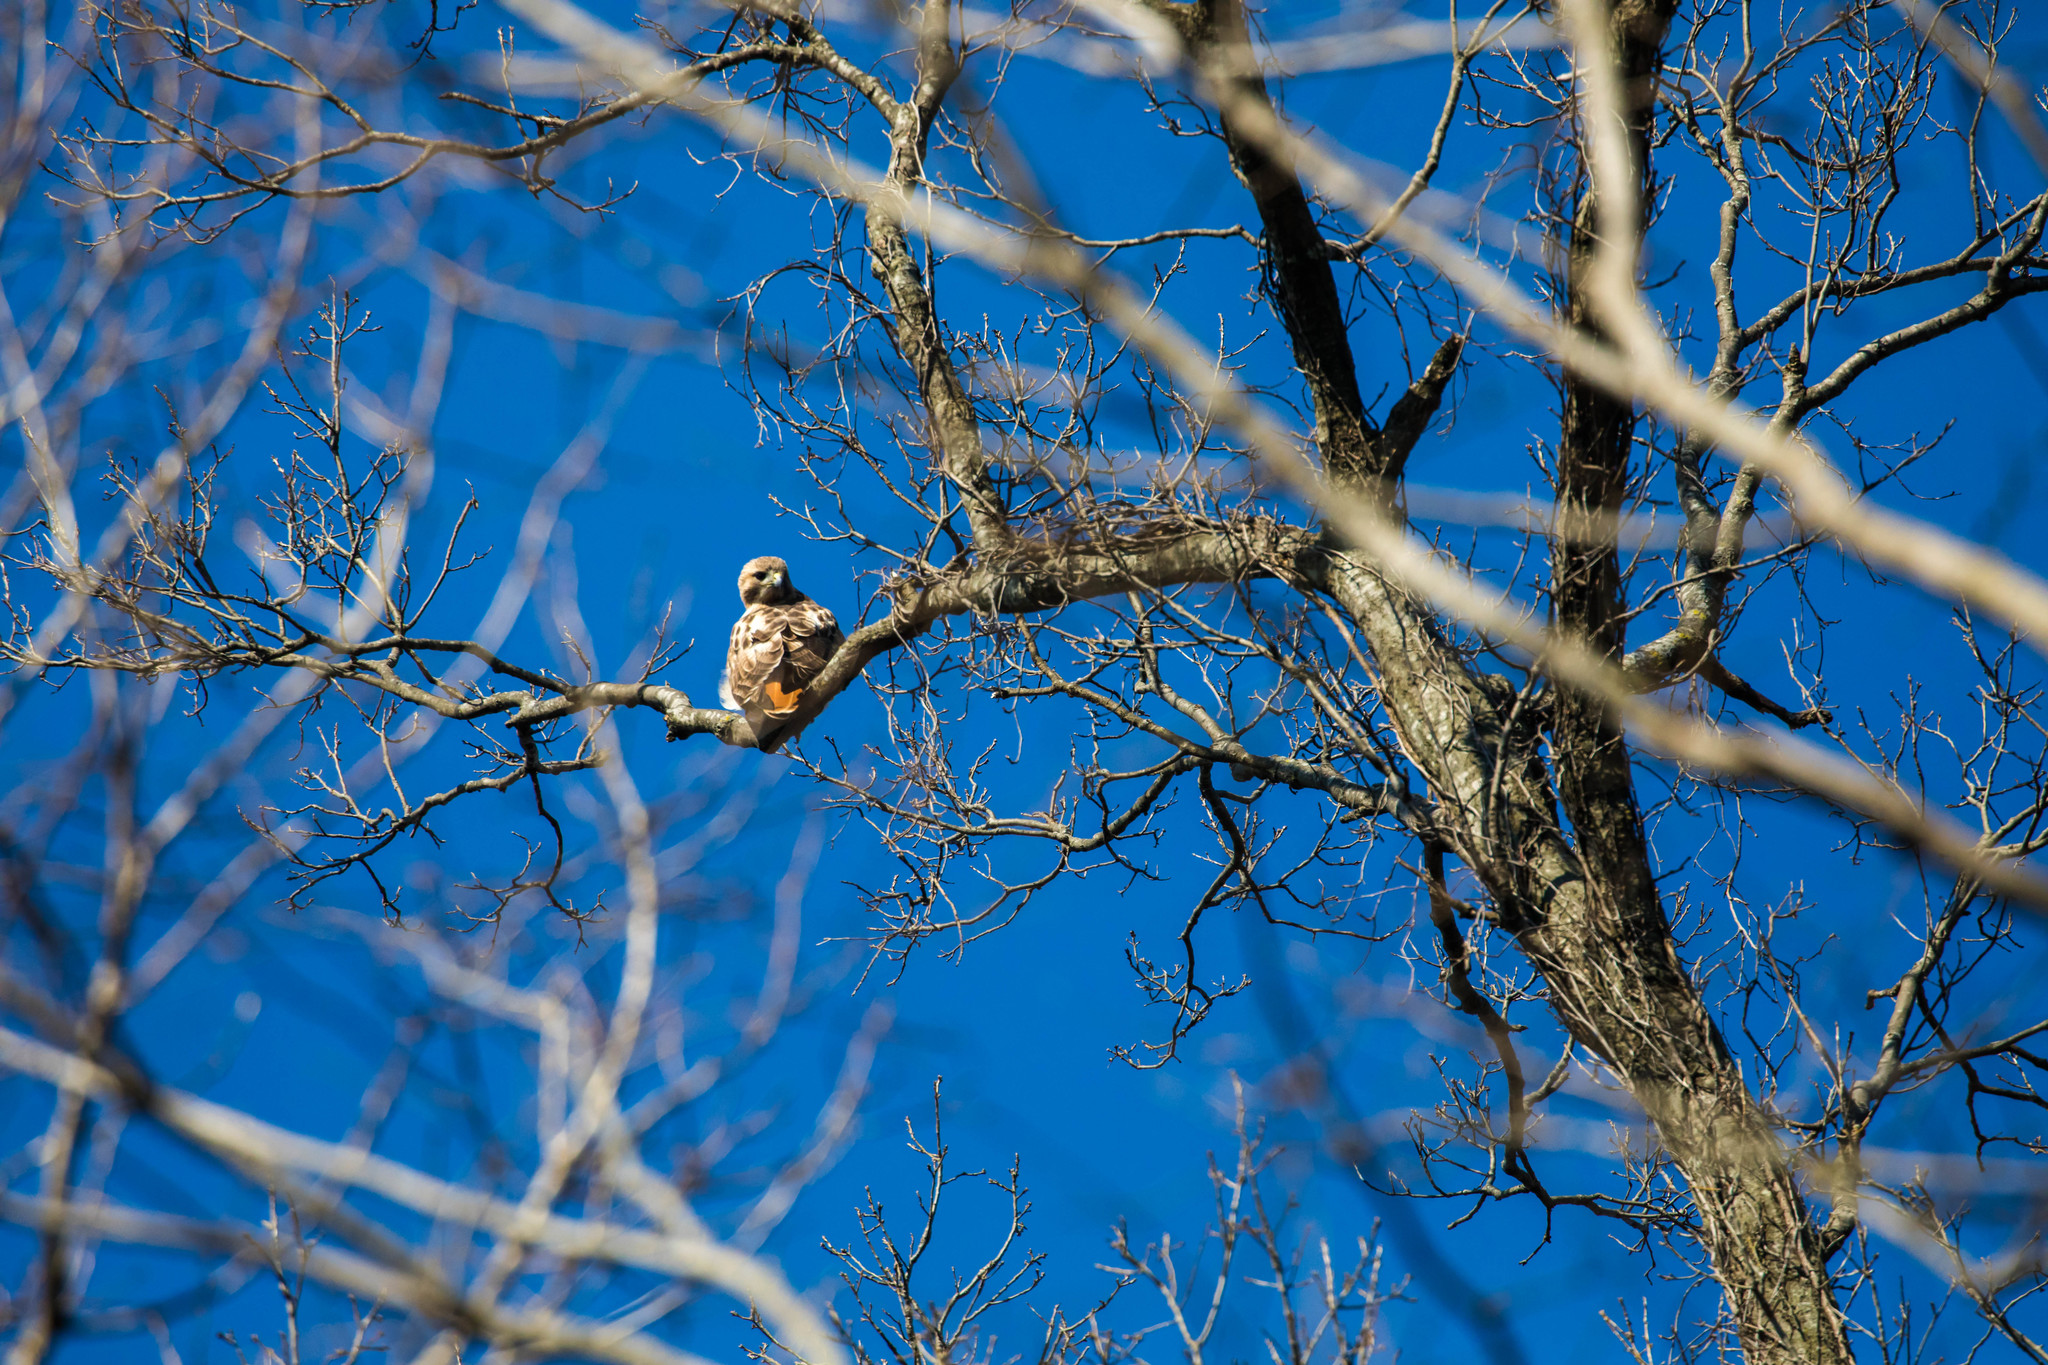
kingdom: Animalia
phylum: Chordata
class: Aves
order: Accipitriformes
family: Accipitridae
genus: Buteo
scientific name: Buteo jamaicensis
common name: Red-tailed hawk
